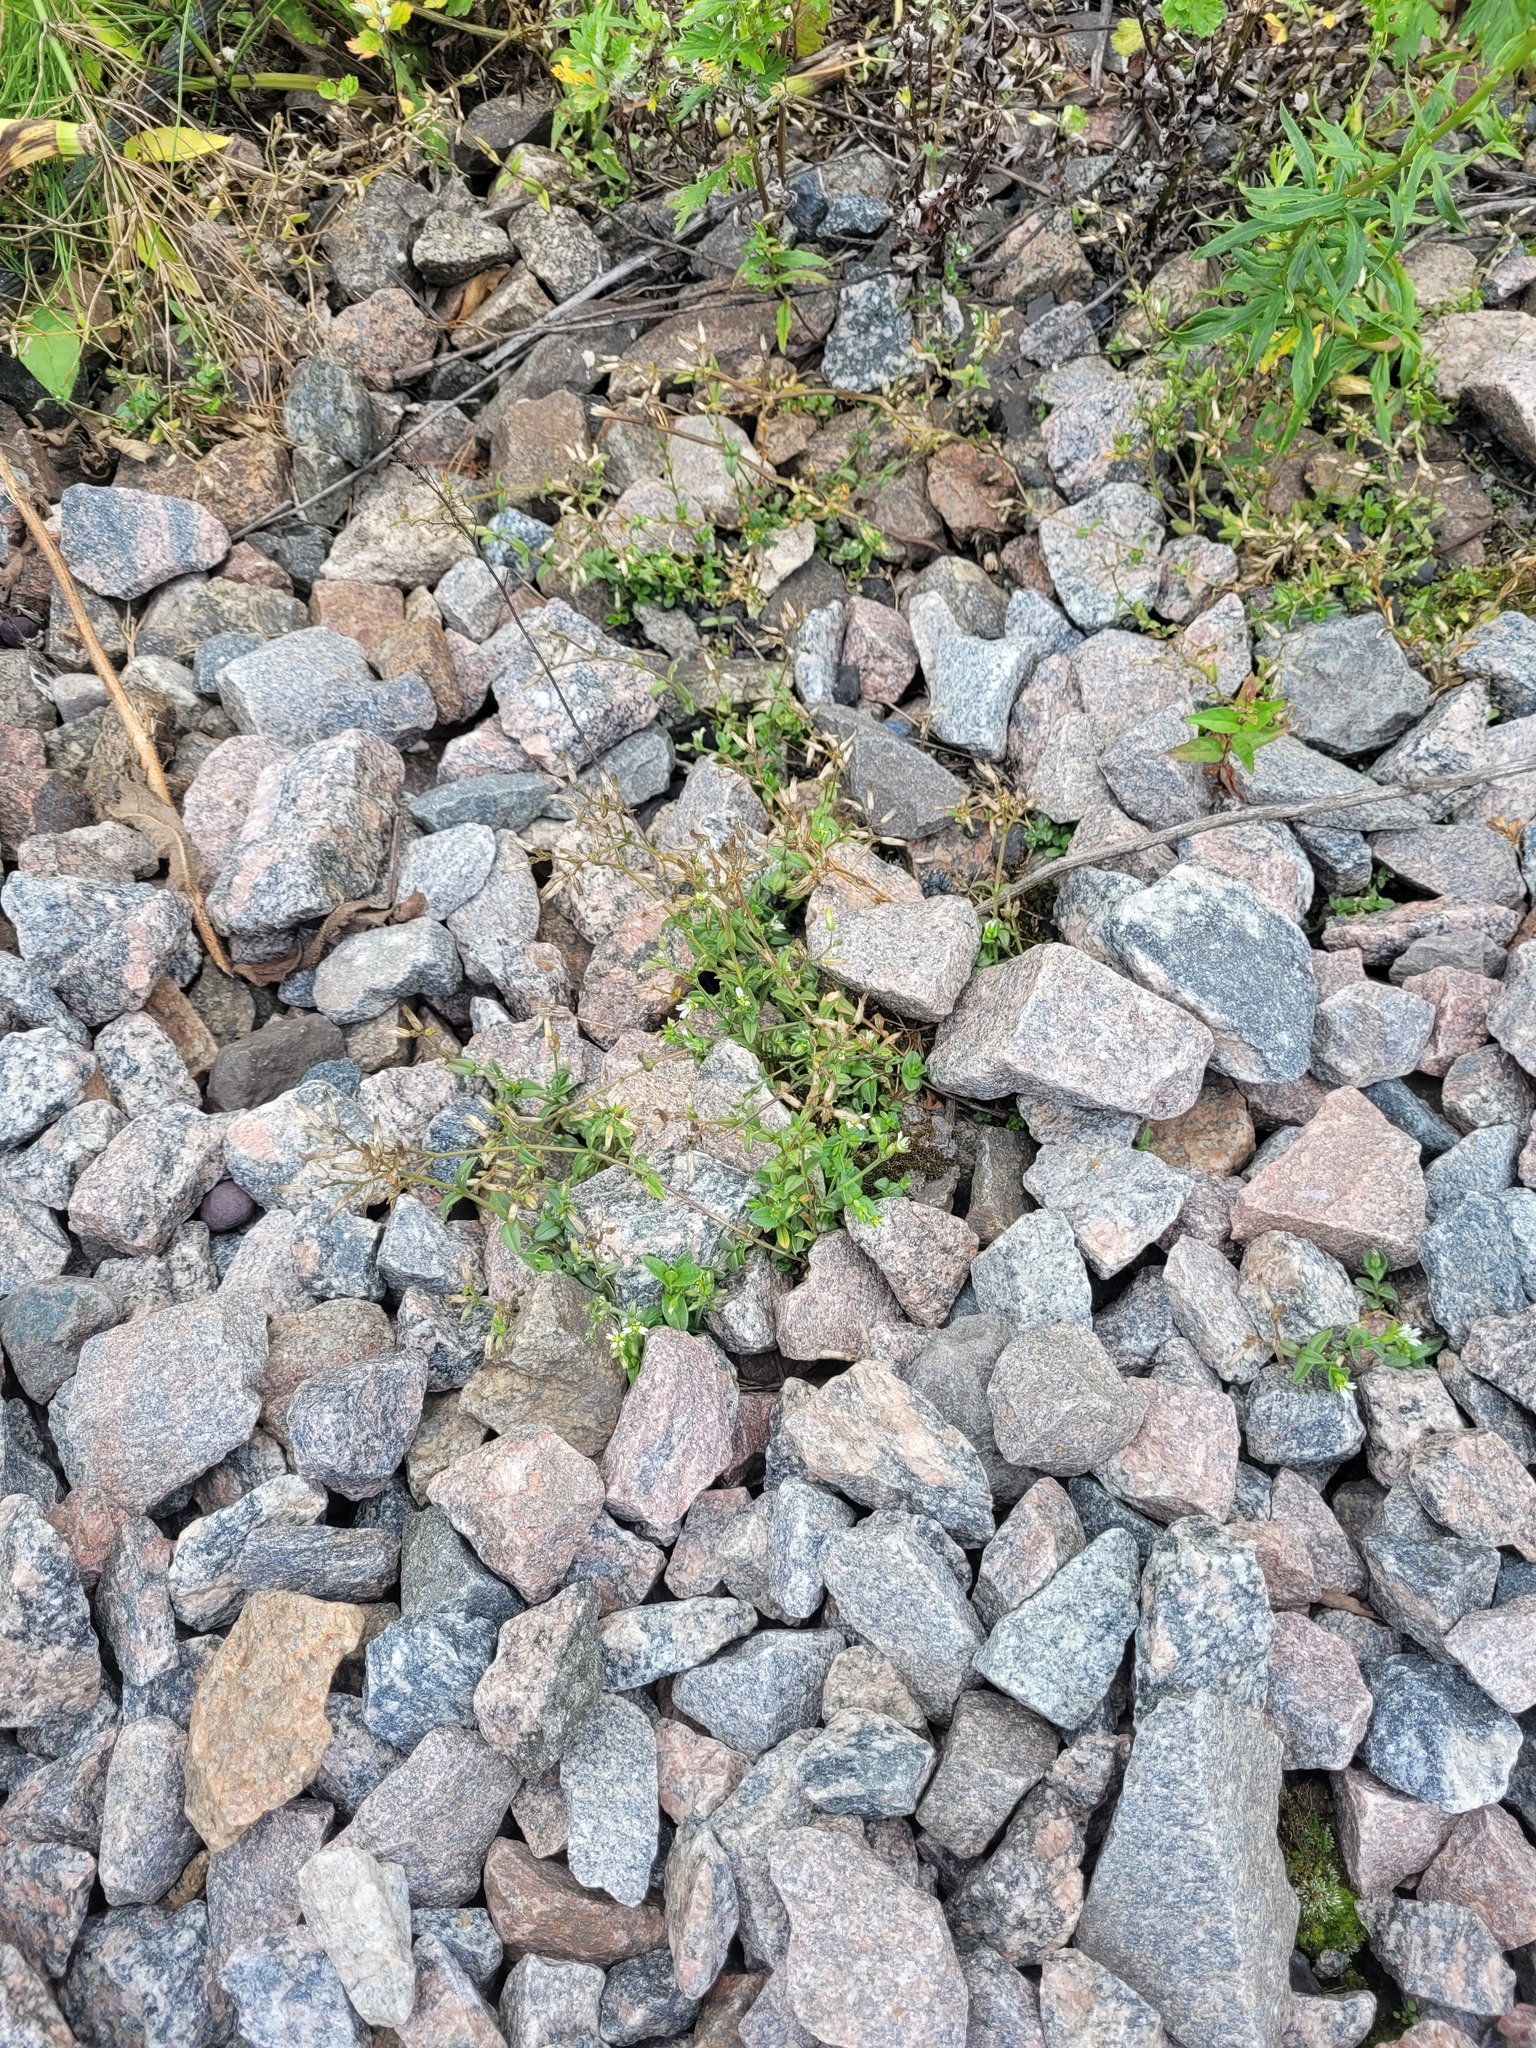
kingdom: Plantae
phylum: Tracheophyta
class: Magnoliopsida
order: Caryophyllales
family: Caryophyllaceae
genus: Cerastium
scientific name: Cerastium holosteoides
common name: Big chickweed
